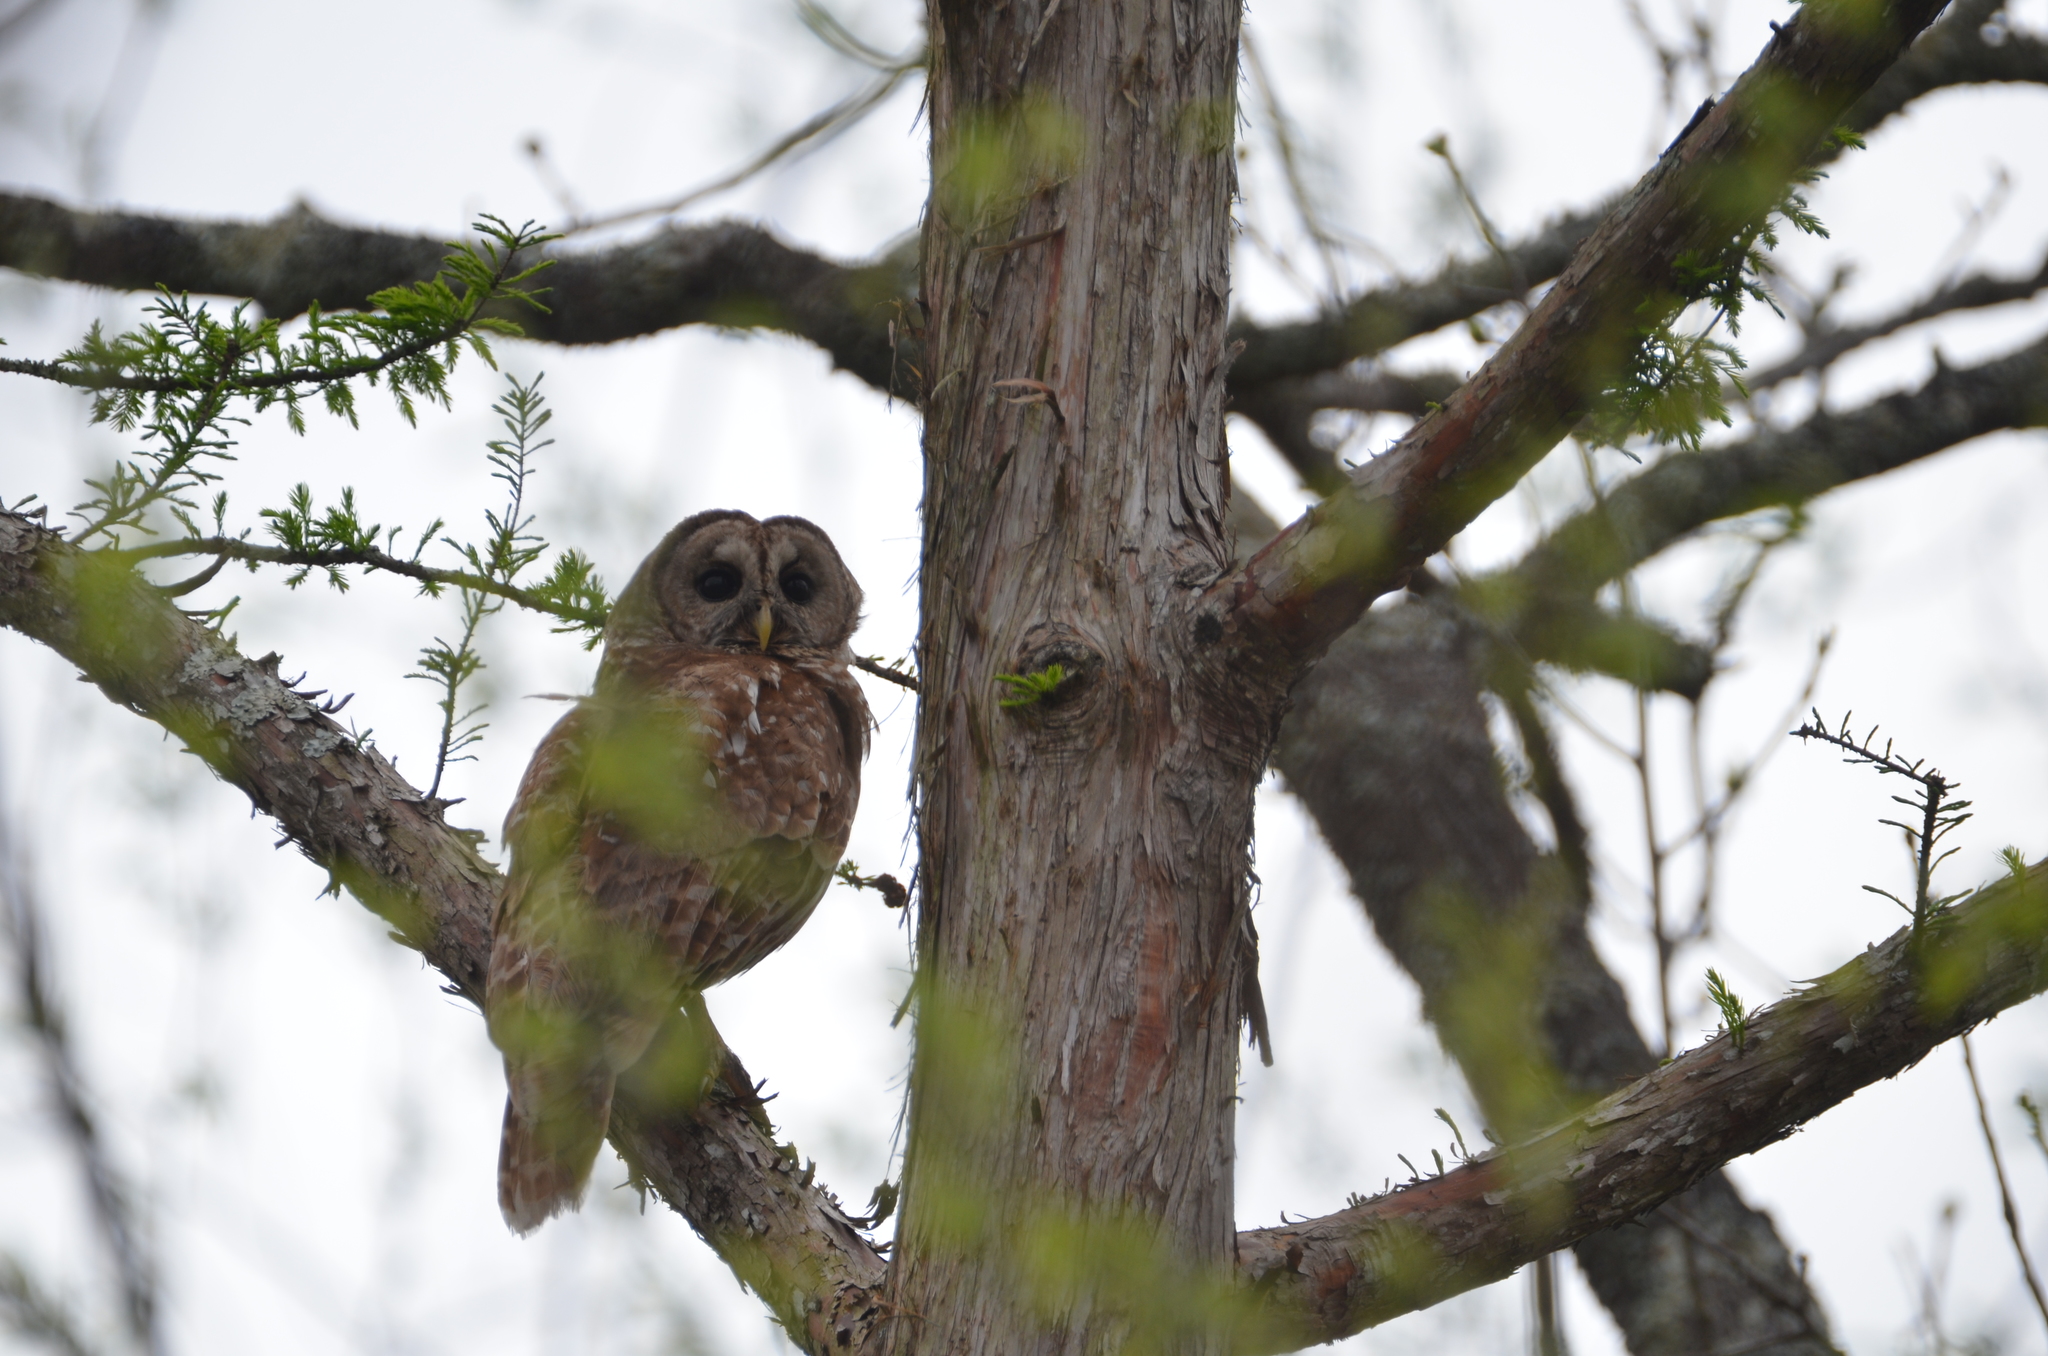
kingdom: Animalia
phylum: Chordata
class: Aves
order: Strigiformes
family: Strigidae
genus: Strix
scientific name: Strix varia
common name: Barred owl
